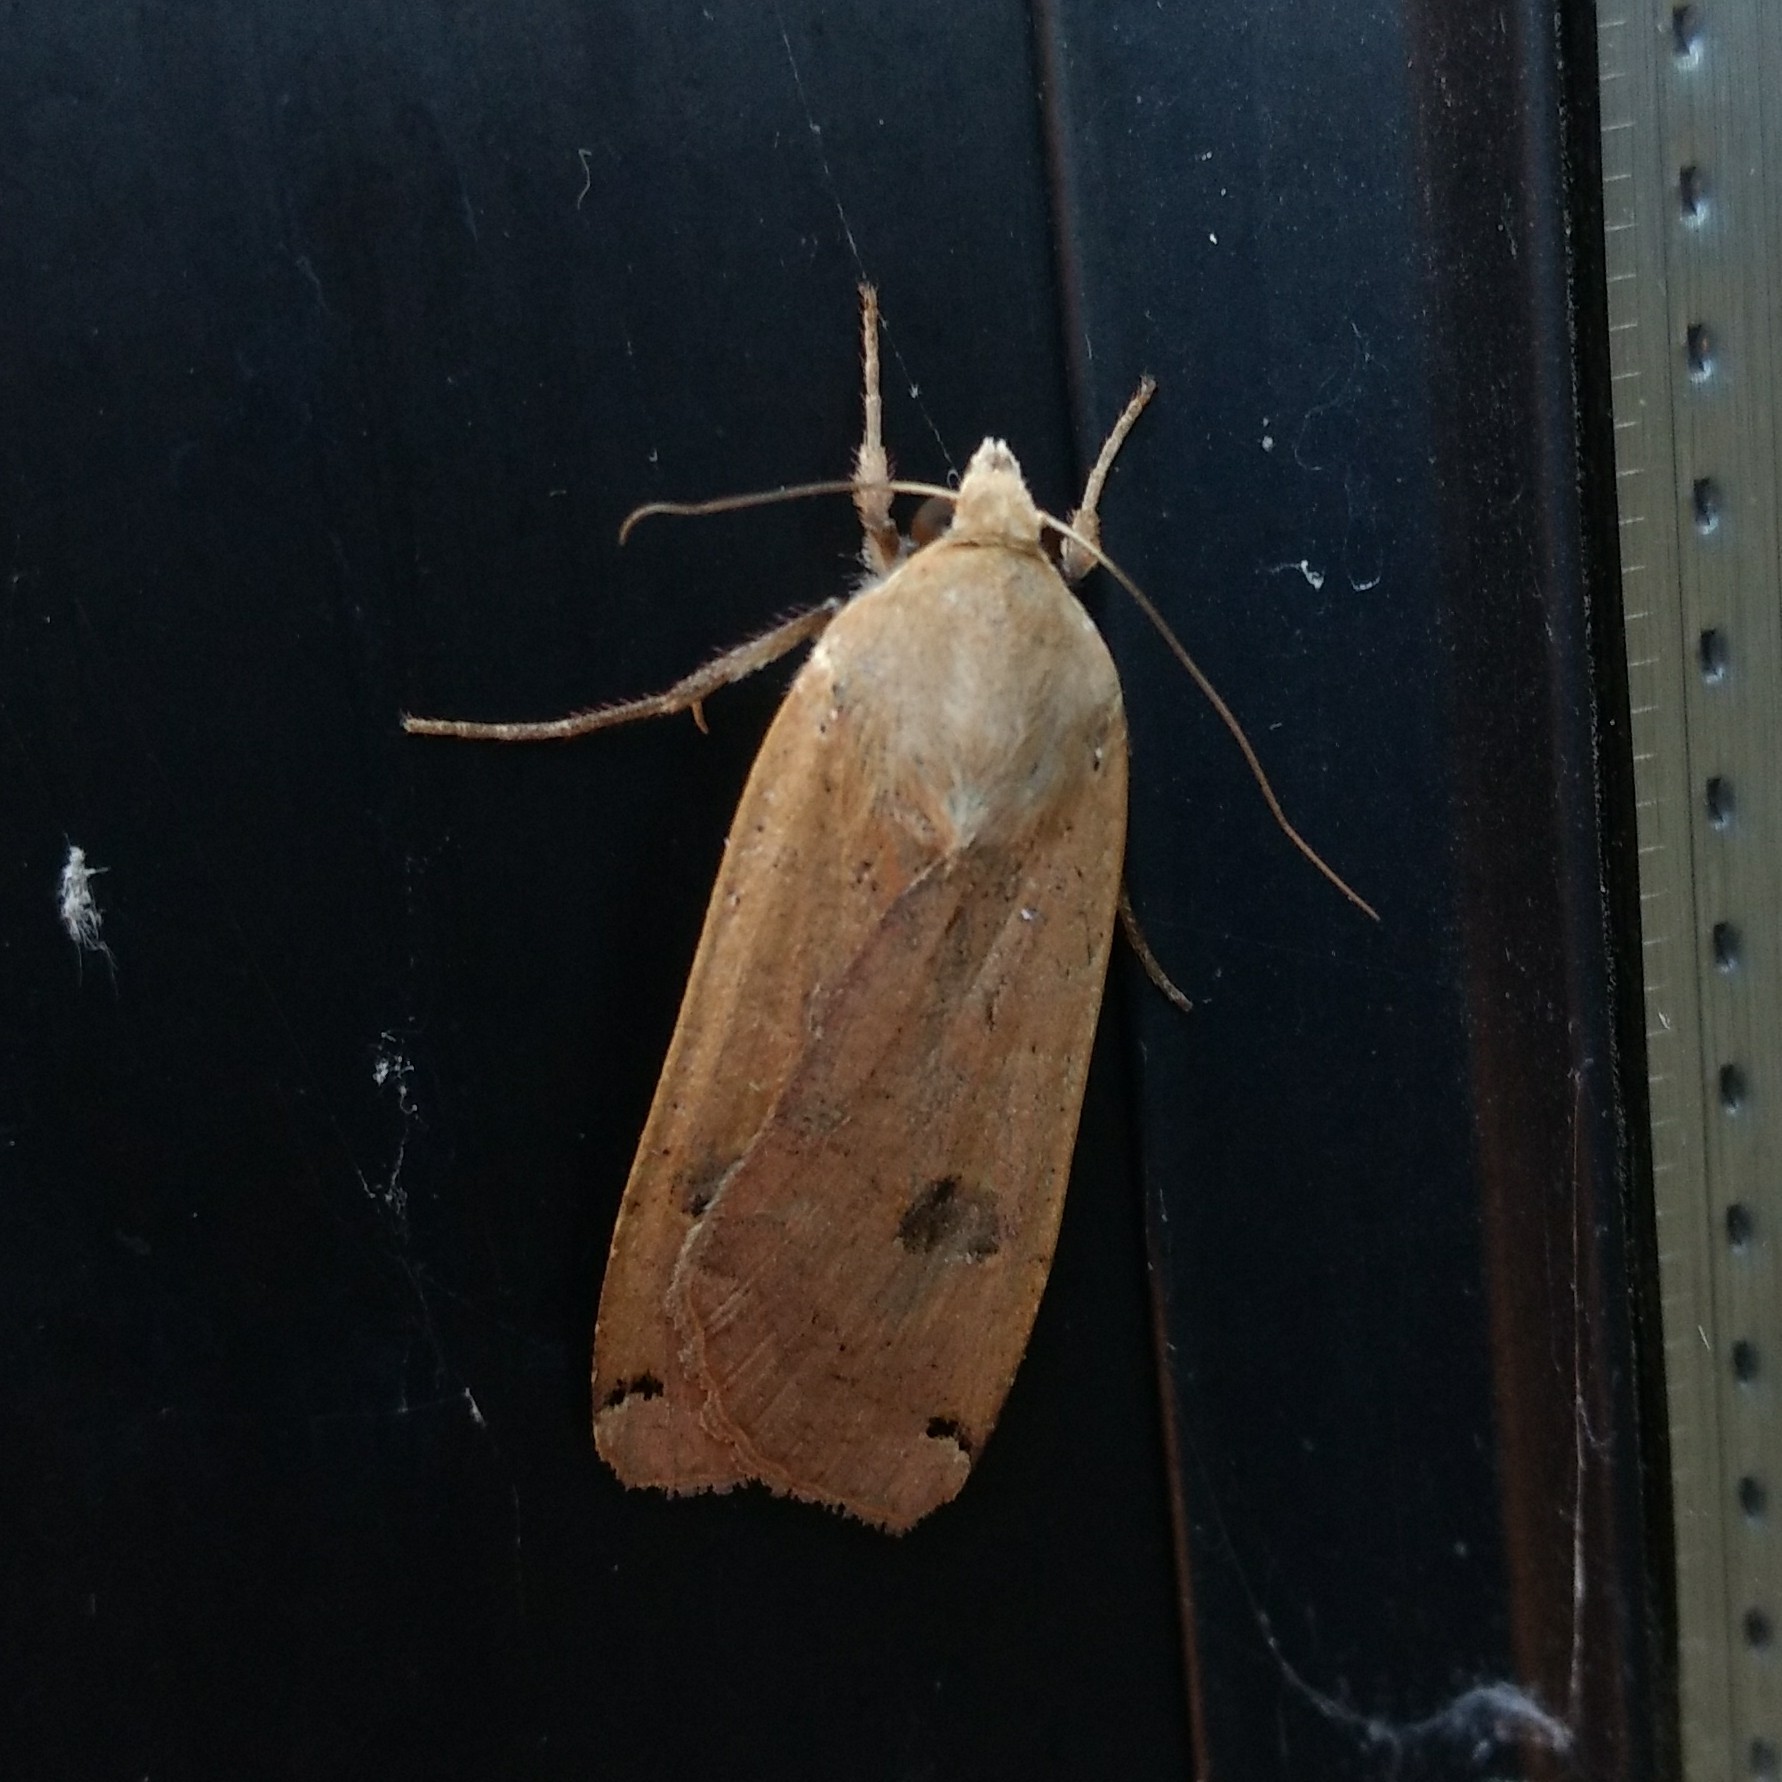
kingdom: Animalia
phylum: Arthropoda
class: Insecta
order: Lepidoptera
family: Noctuidae
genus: Noctua
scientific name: Noctua pronuba
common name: Large yellow underwing
